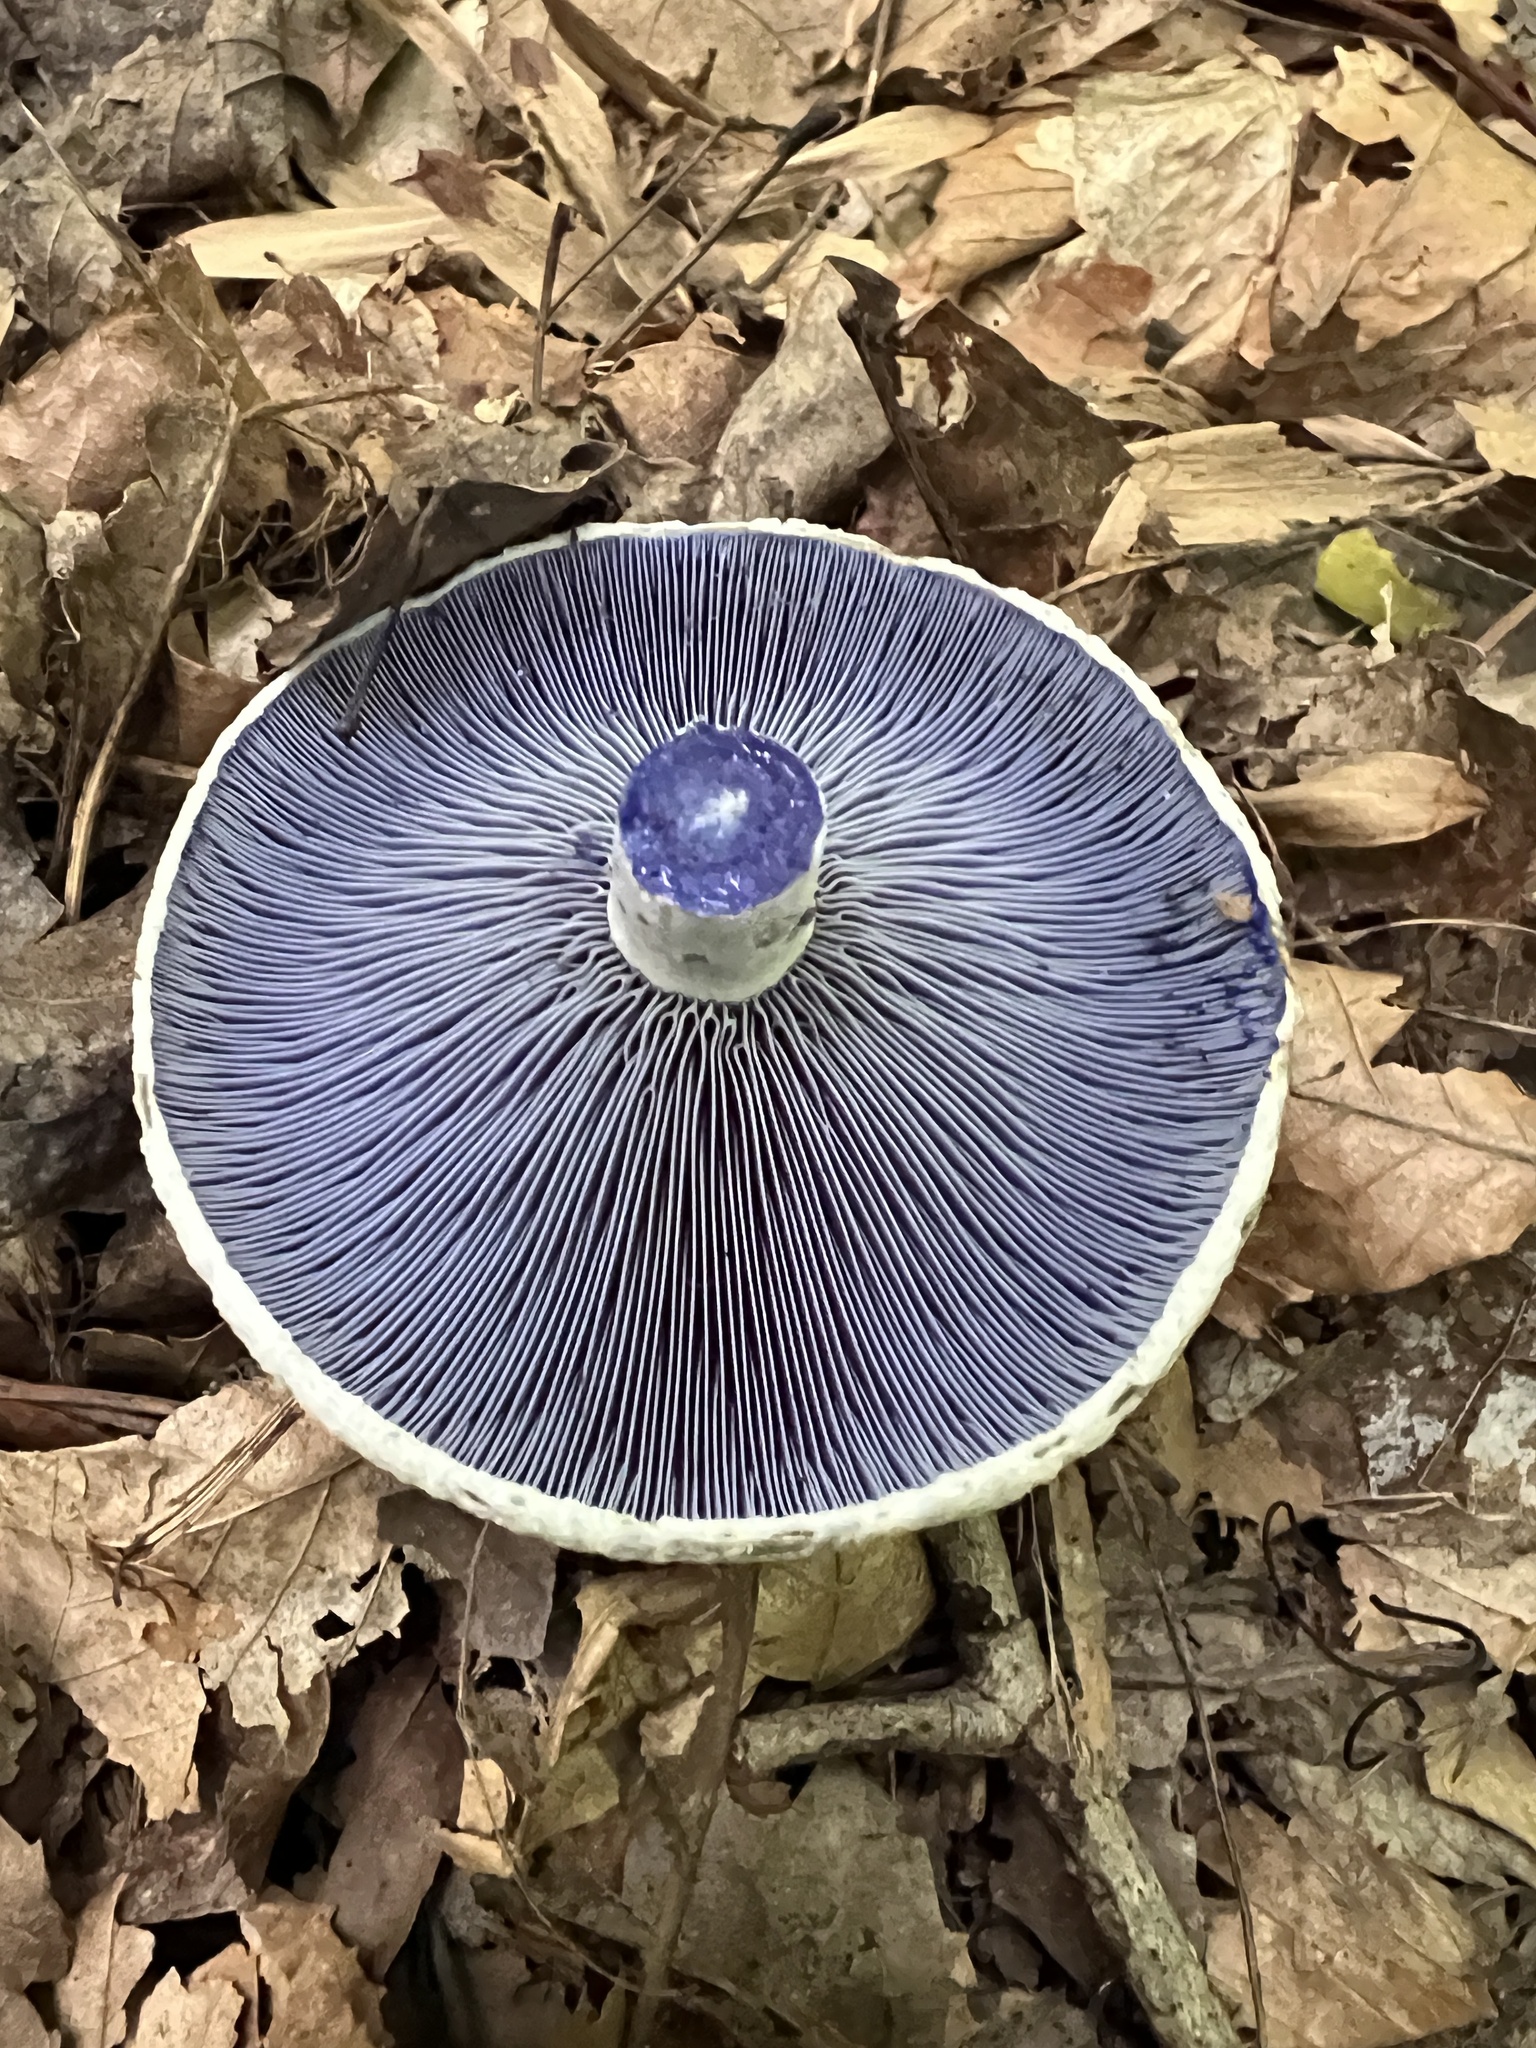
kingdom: Fungi
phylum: Basidiomycota
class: Agaricomycetes
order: Russulales
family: Russulaceae
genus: Lactarius
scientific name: Lactarius indigo
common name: Indigo milk cap
